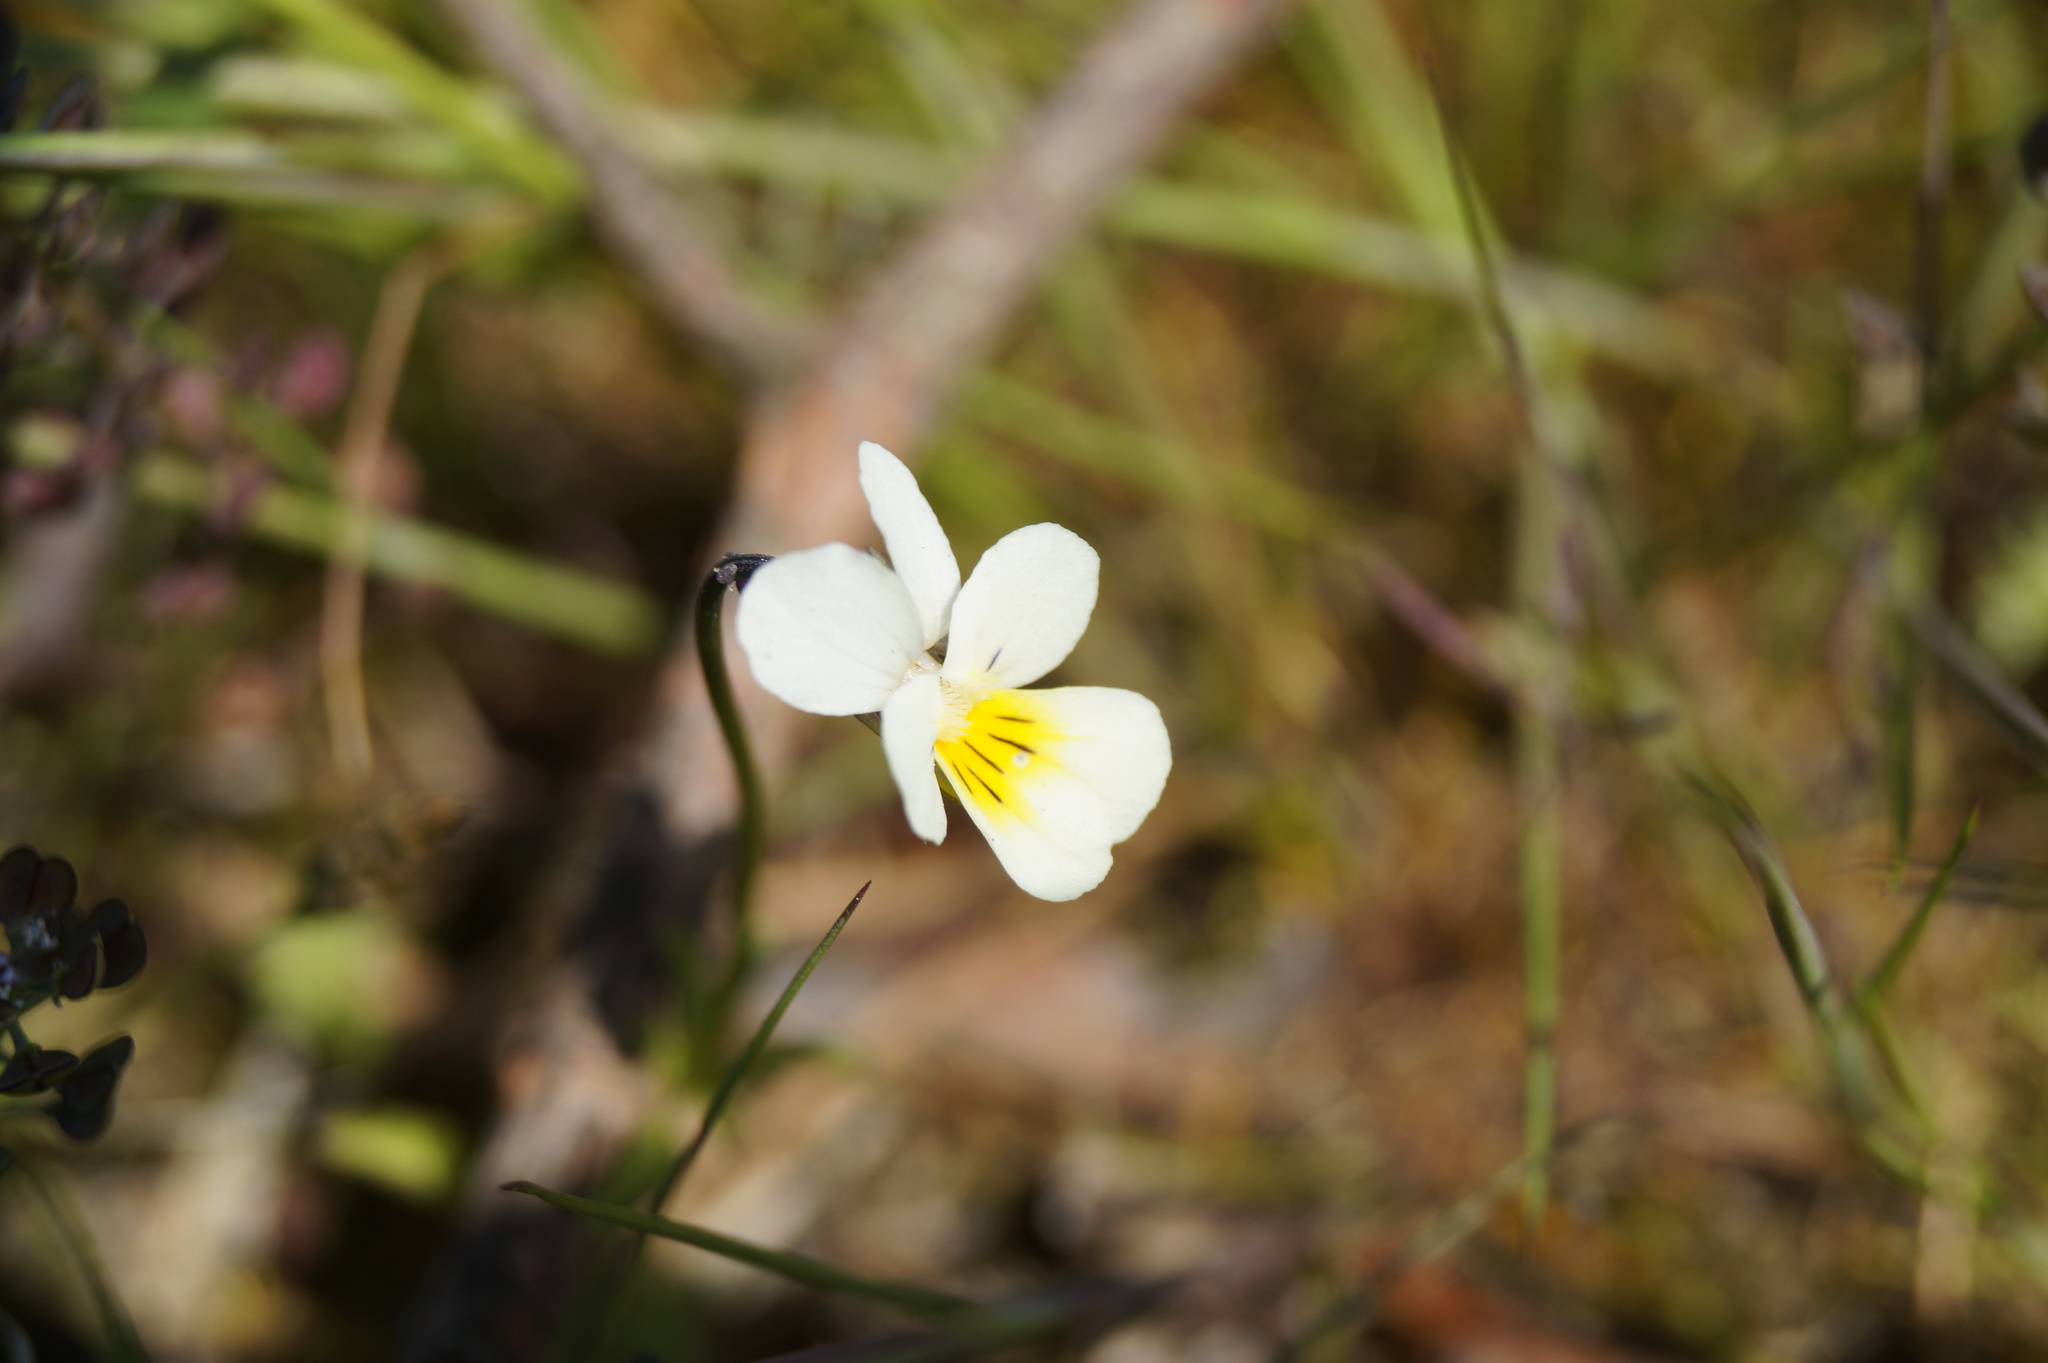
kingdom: Plantae
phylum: Tracheophyta
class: Magnoliopsida
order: Malpighiales
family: Violaceae
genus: Viola
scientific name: Viola arvensis
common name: Field pansy
